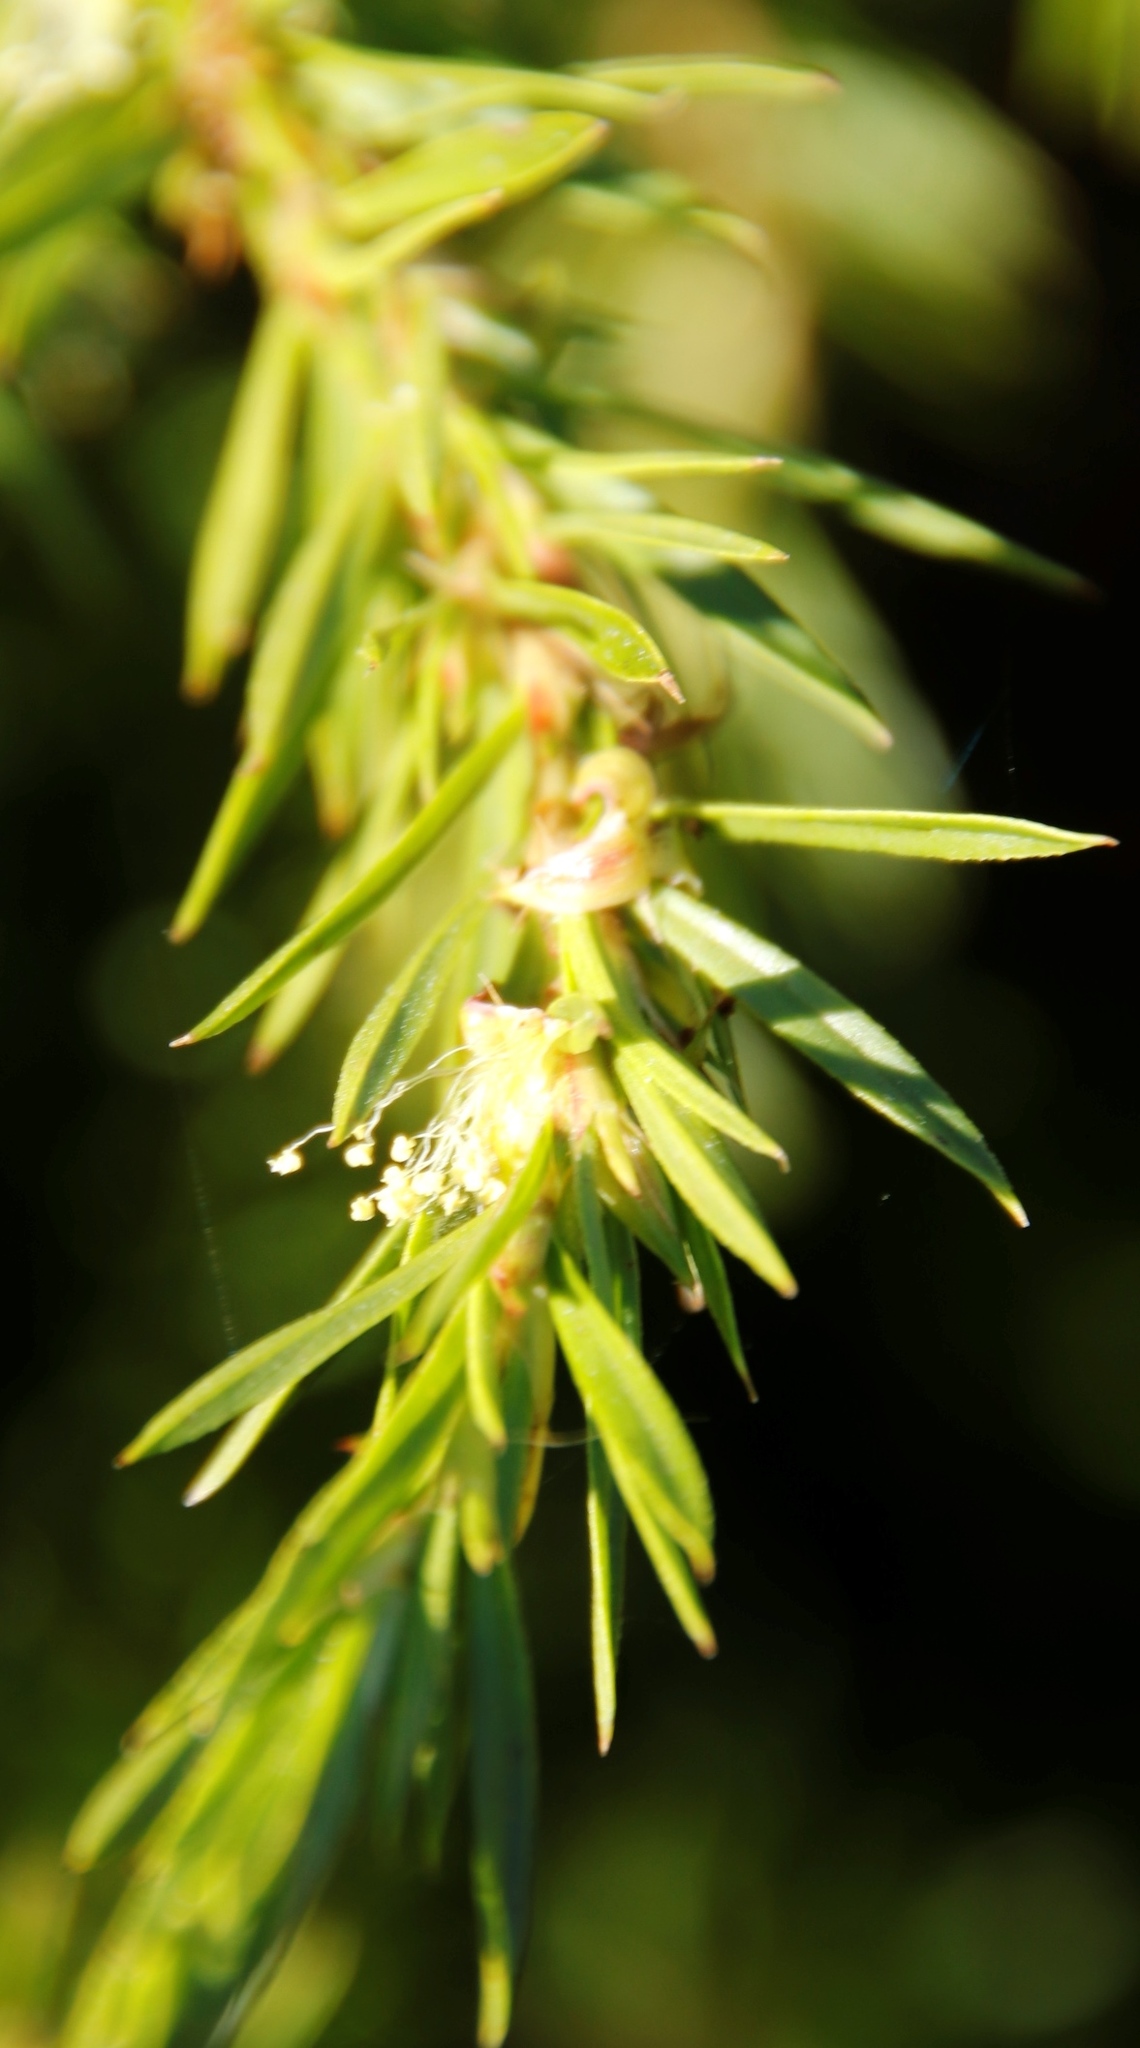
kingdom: Plantae
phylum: Tracheophyta
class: Magnoliopsida
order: Rosales
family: Rosaceae
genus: Cliffortia
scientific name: Cliffortia strobilifera
